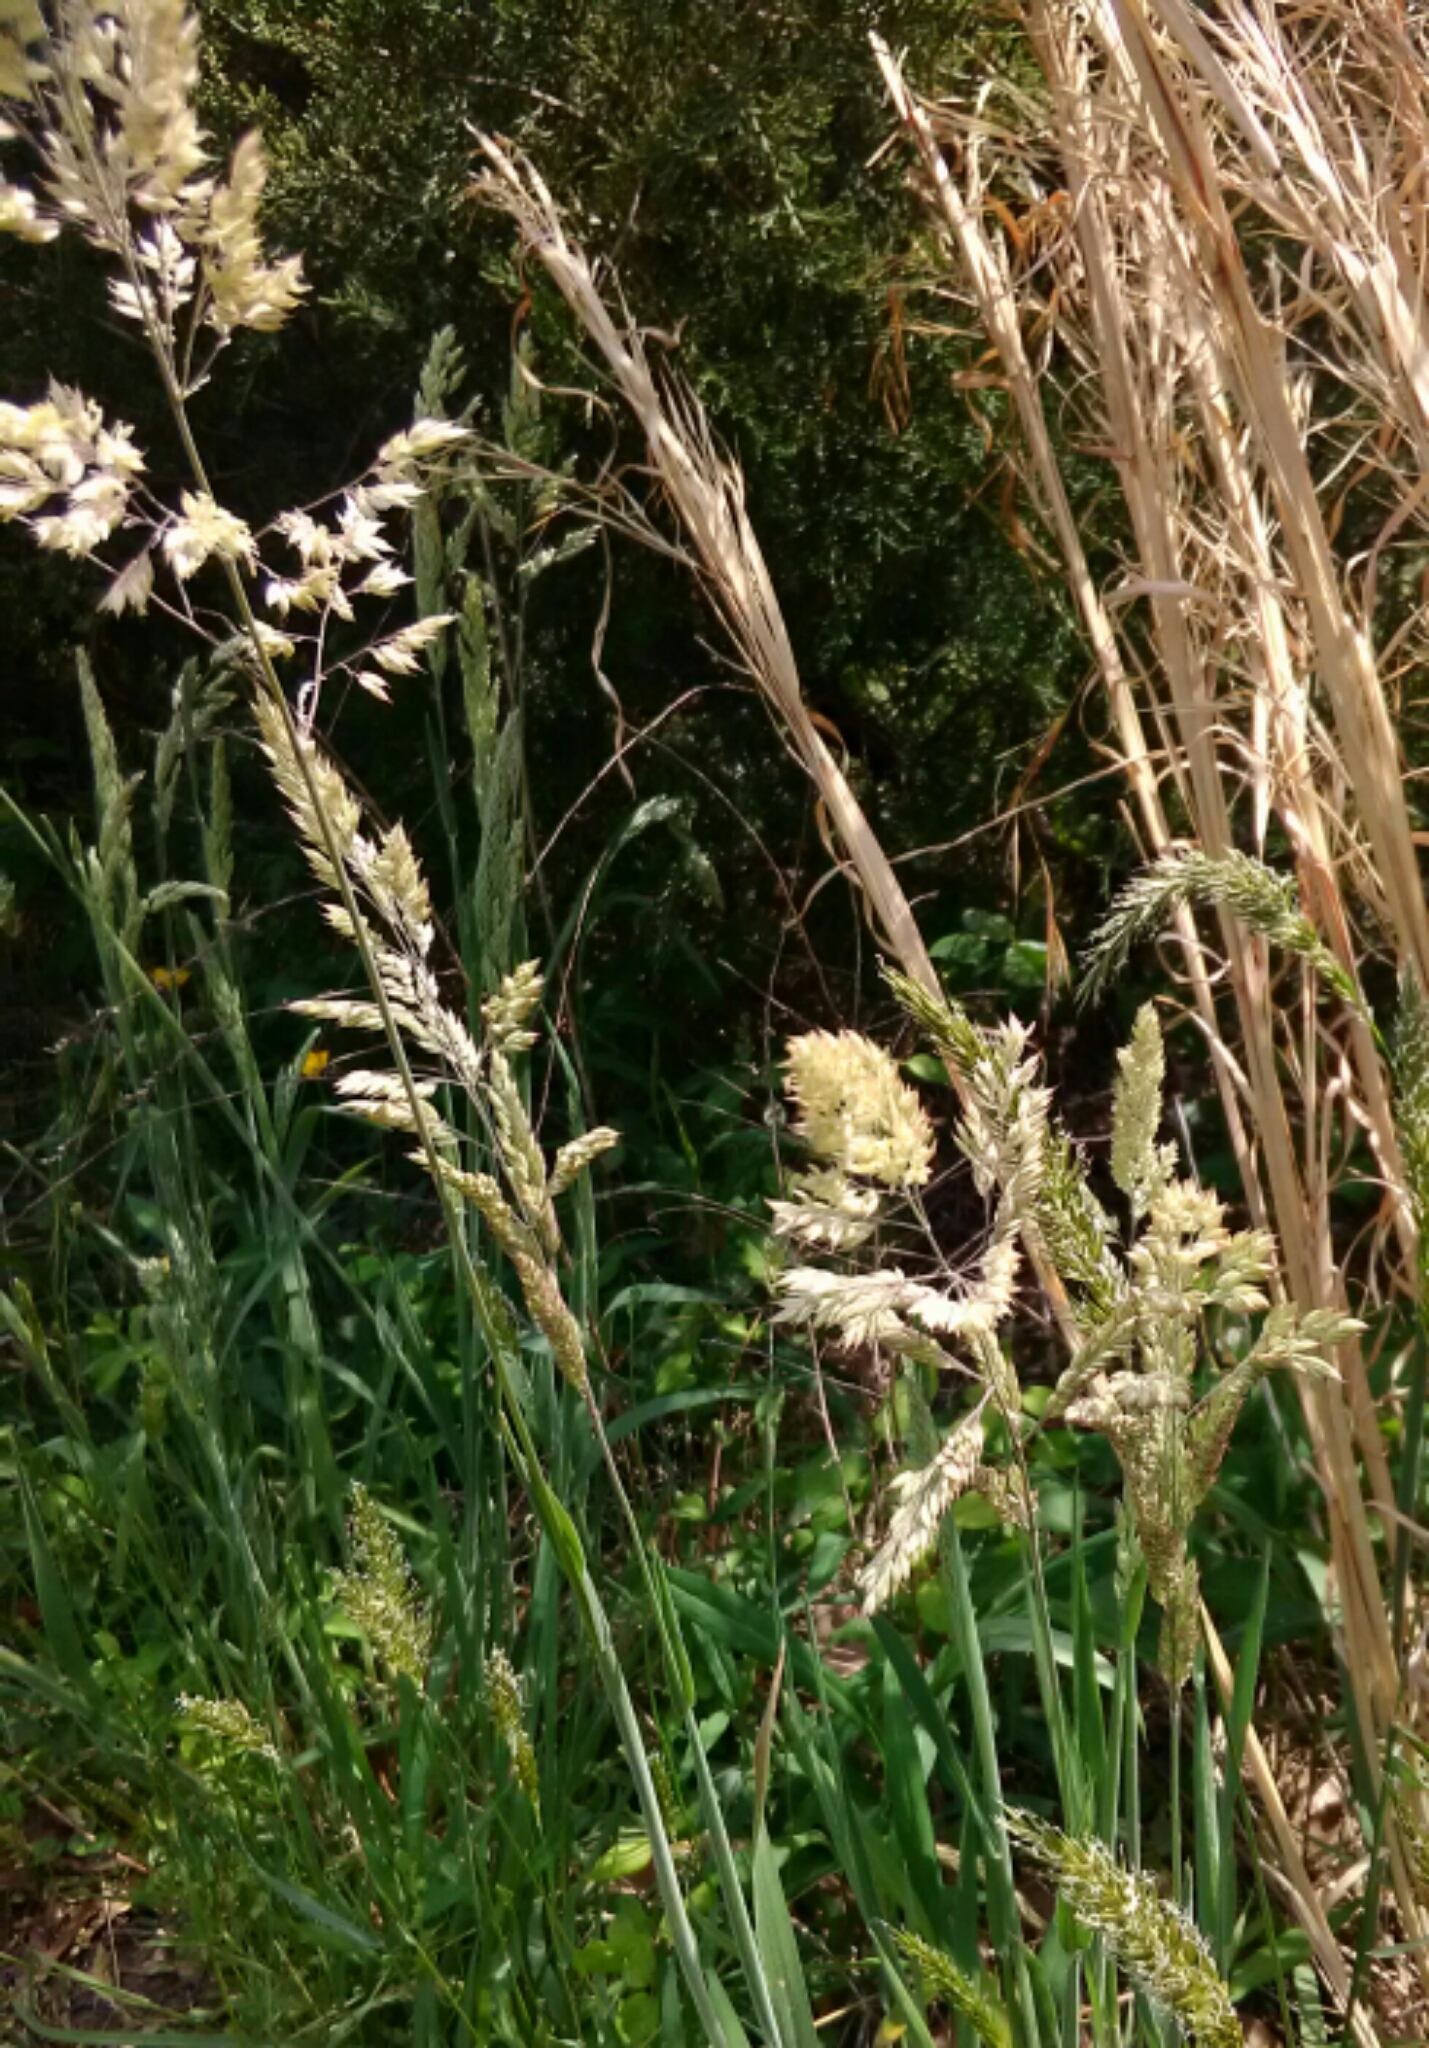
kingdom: Plantae
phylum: Tracheophyta
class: Liliopsida
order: Poales
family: Poaceae
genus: Holcus
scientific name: Holcus lanatus
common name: Yorkshire-fog
